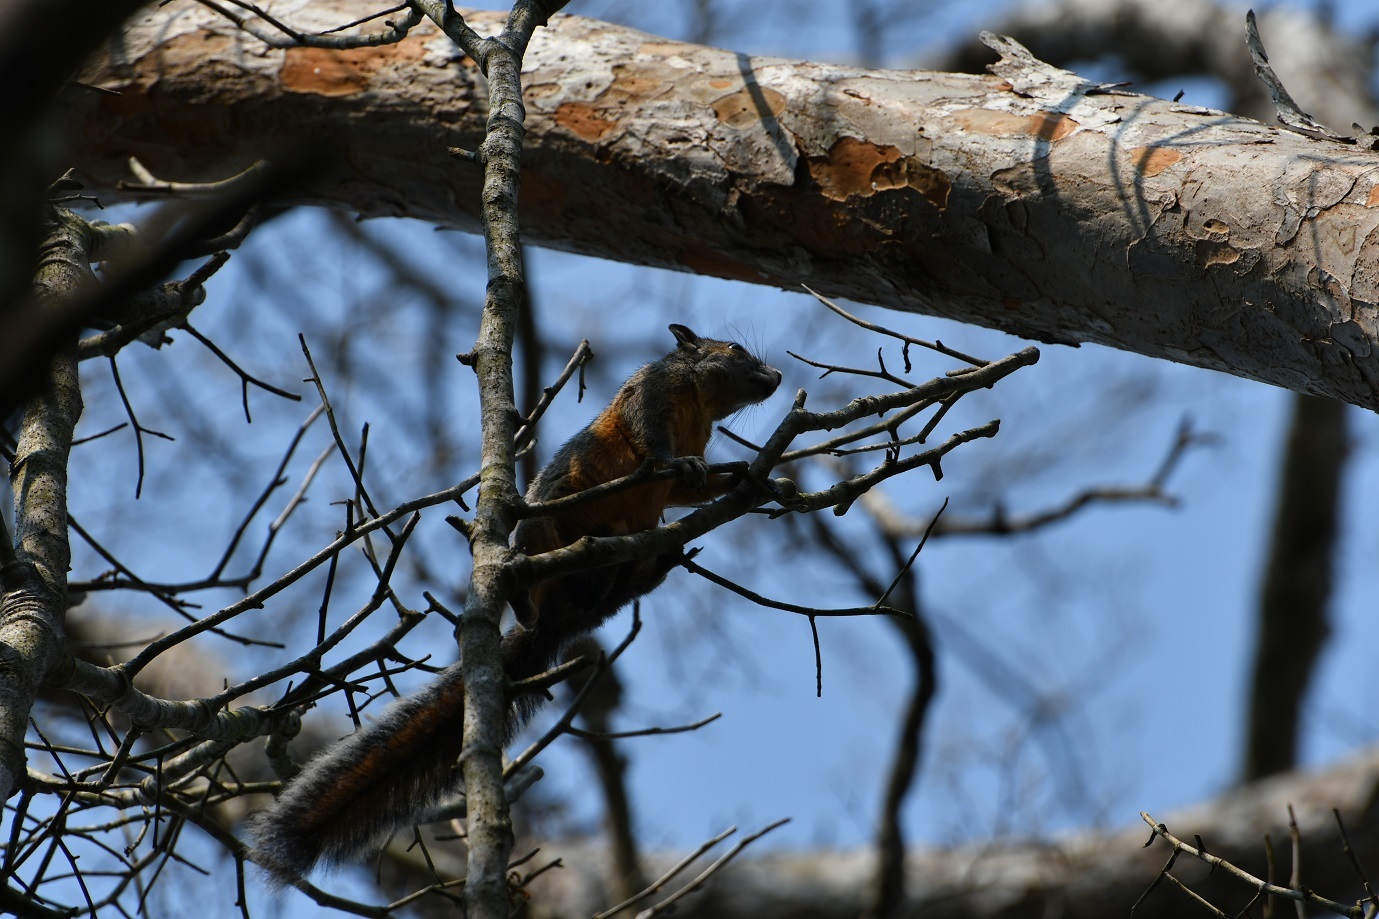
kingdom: Animalia
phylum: Chordata
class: Mammalia
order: Rodentia
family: Sciuridae
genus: Sciurus
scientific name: Sciurus aureogaster
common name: Red-bellied squirrel
